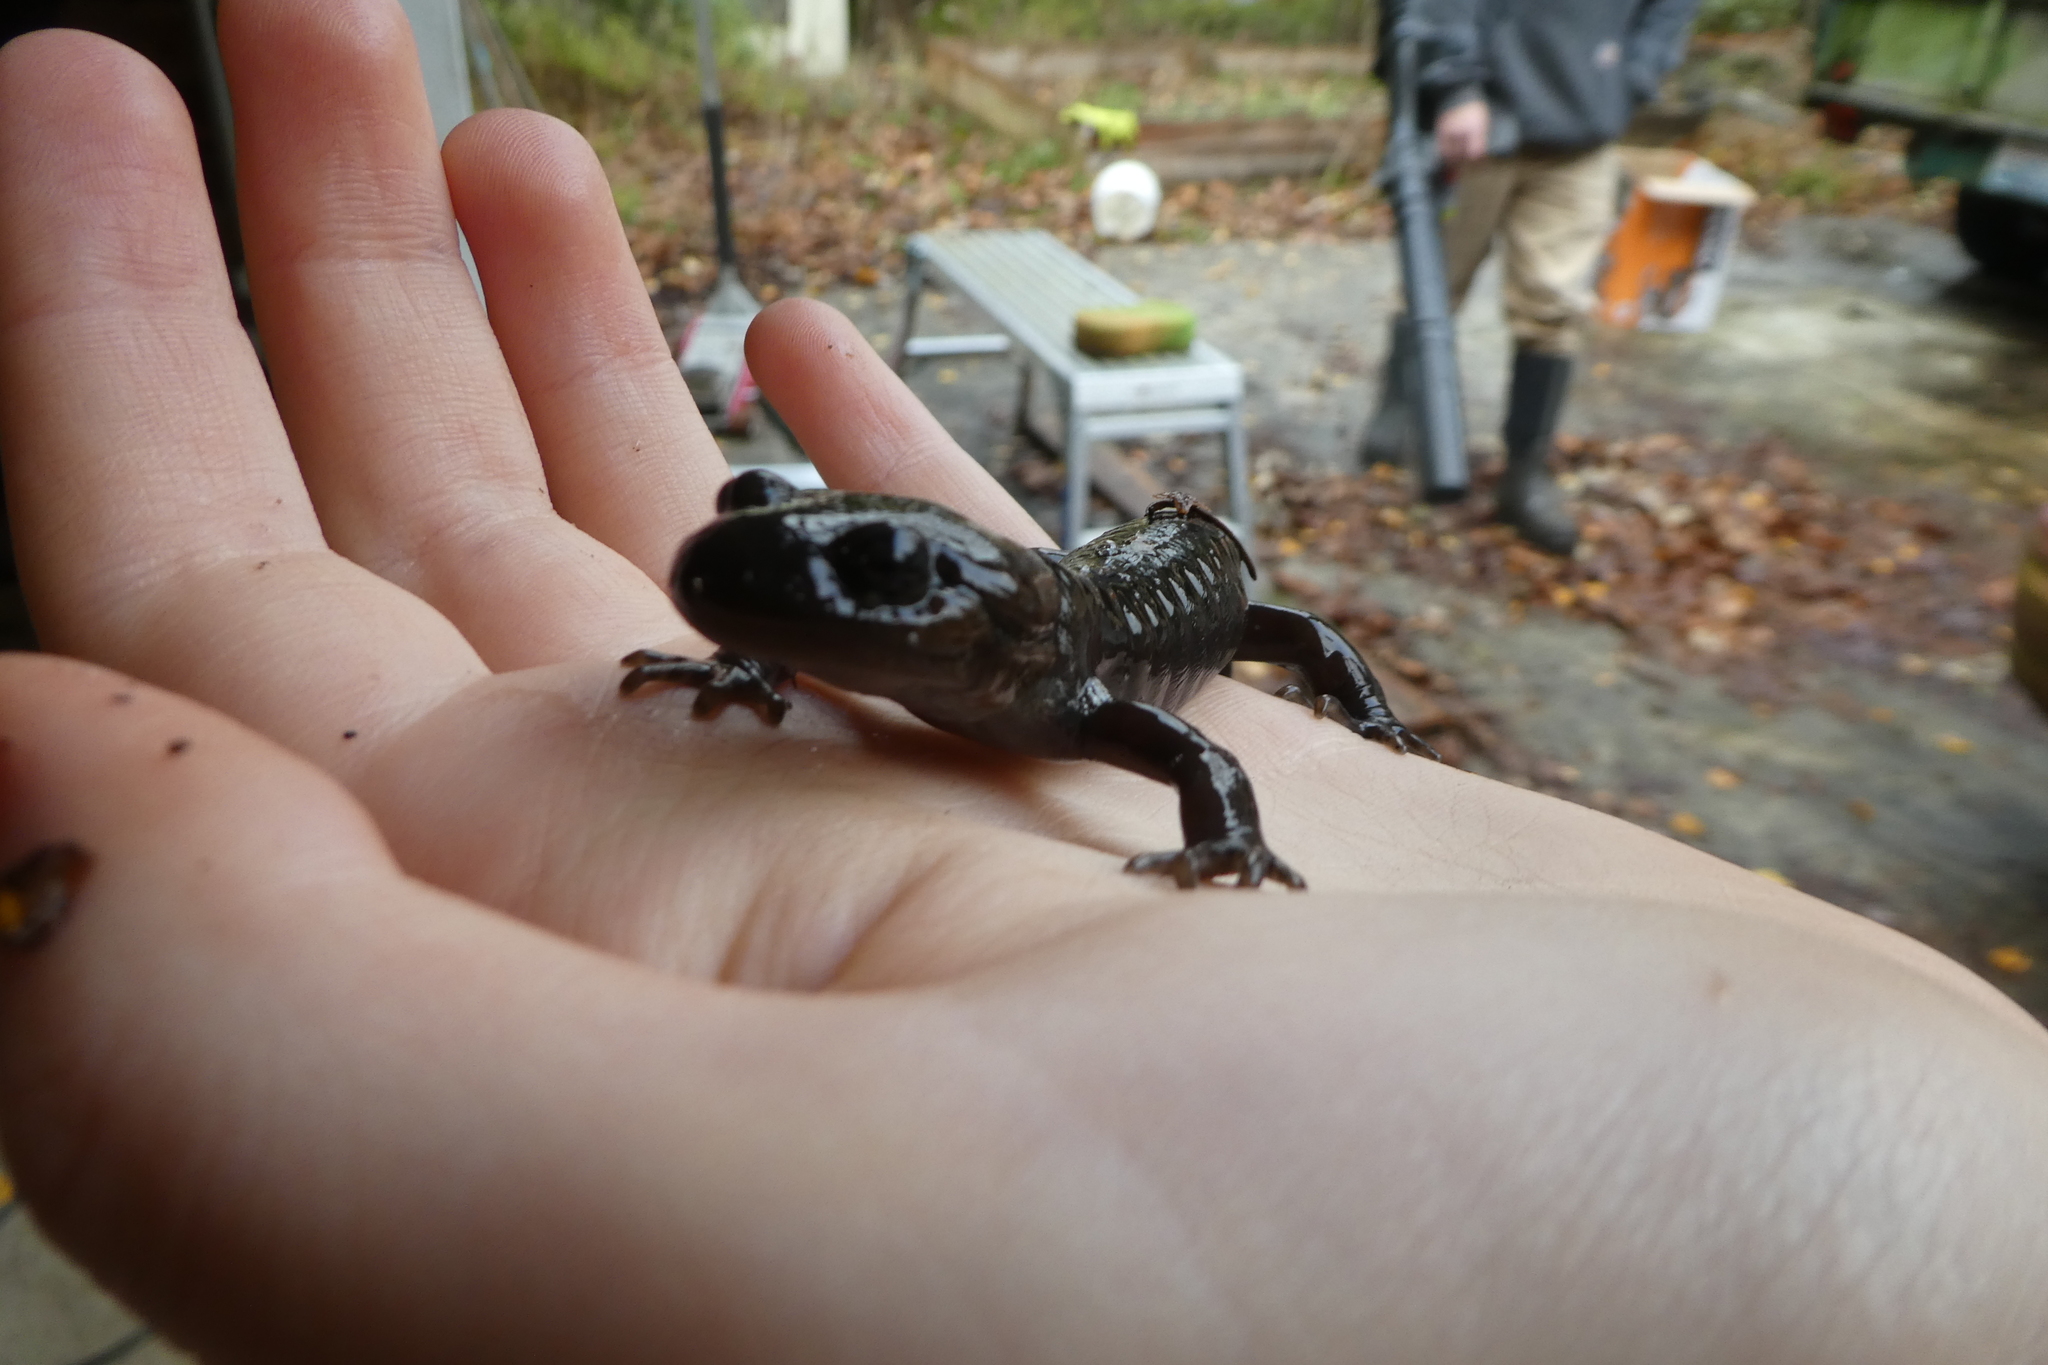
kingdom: Animalia
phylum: Chordata
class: Amphibia
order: Caudata
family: Ambystomatidae
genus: Ambystoma
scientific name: Ambystoma gracile
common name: Northwestern salamander
